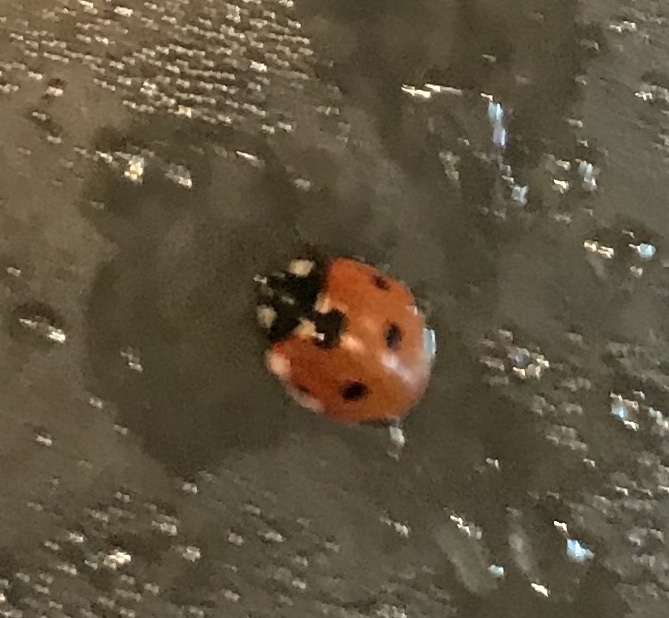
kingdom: Animalia
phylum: Arthropoda
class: Insecta
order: Coleoptera
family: Coccinellidae
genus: Coccinella
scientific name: Coccinella septempunctata
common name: Sevenspotted lady beetle
